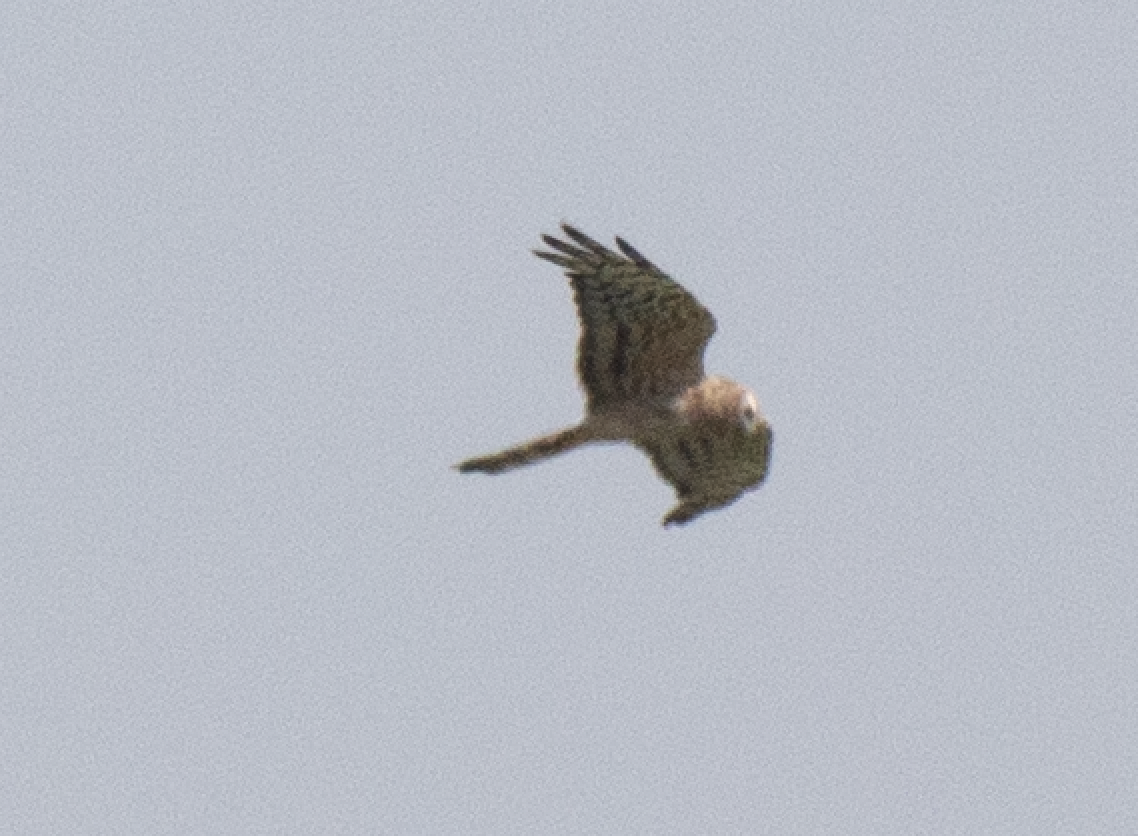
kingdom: Animalia
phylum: Chordata
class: Aves
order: Accipitriformes
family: Accipitridae
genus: Circus
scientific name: Circus pygargus
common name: Montagu's harrier
